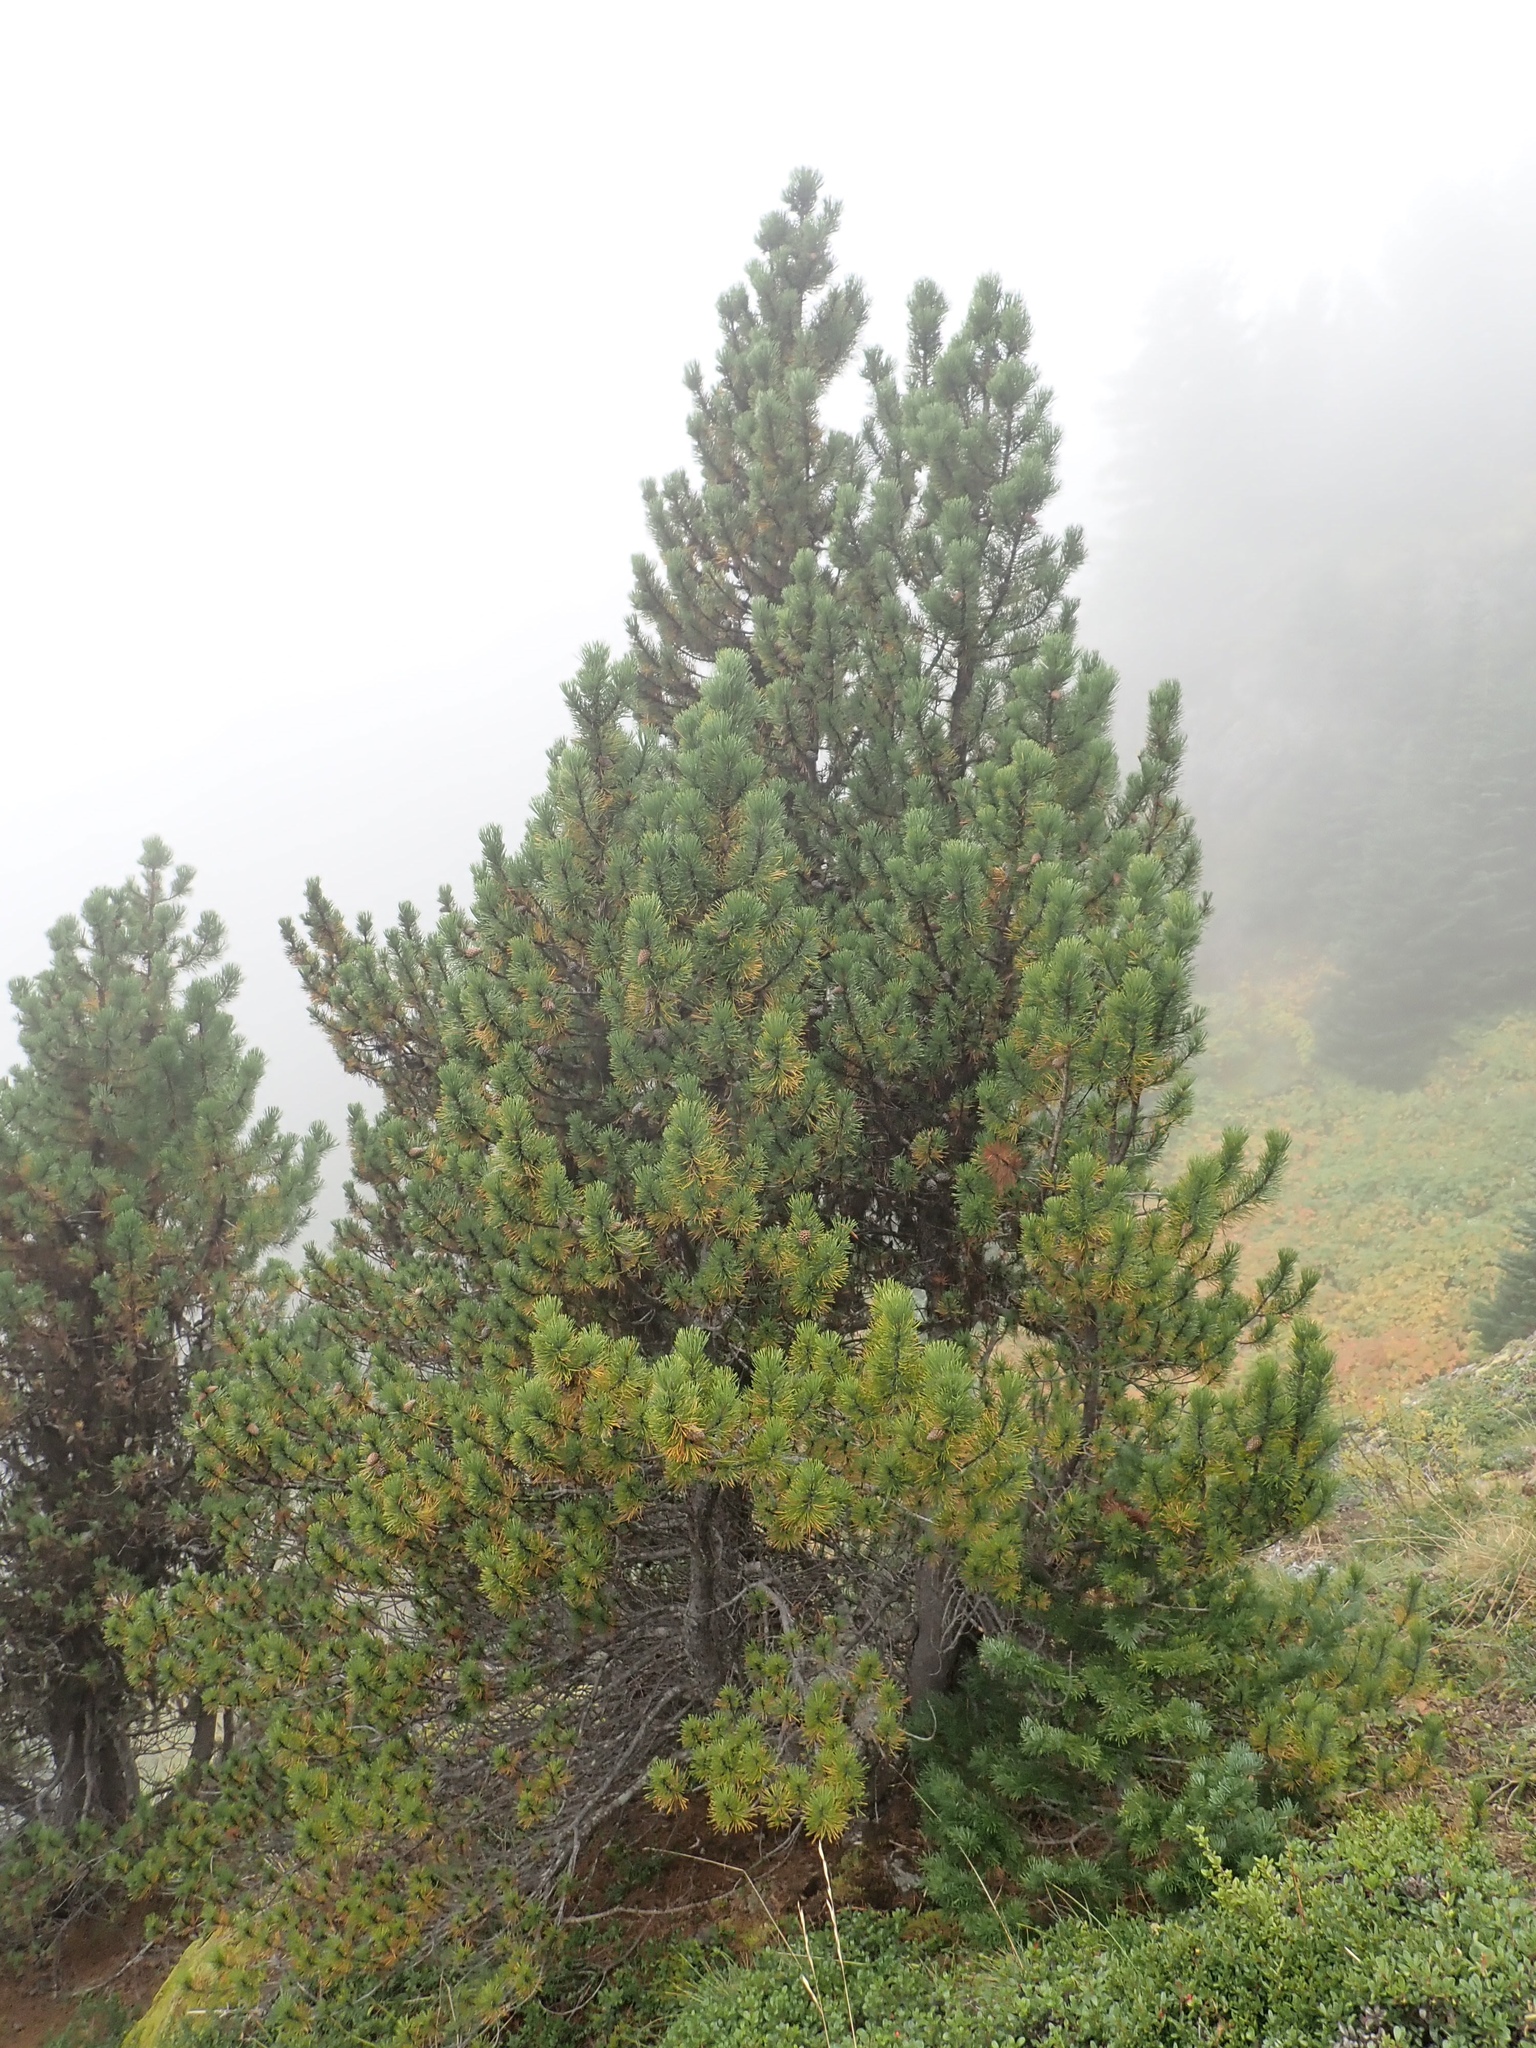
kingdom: Plantae
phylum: Tracheophyta
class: Pinopsida
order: Pinales
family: Pinaceae
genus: Pinus
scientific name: Pinus contorta
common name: Lodgepole pine
